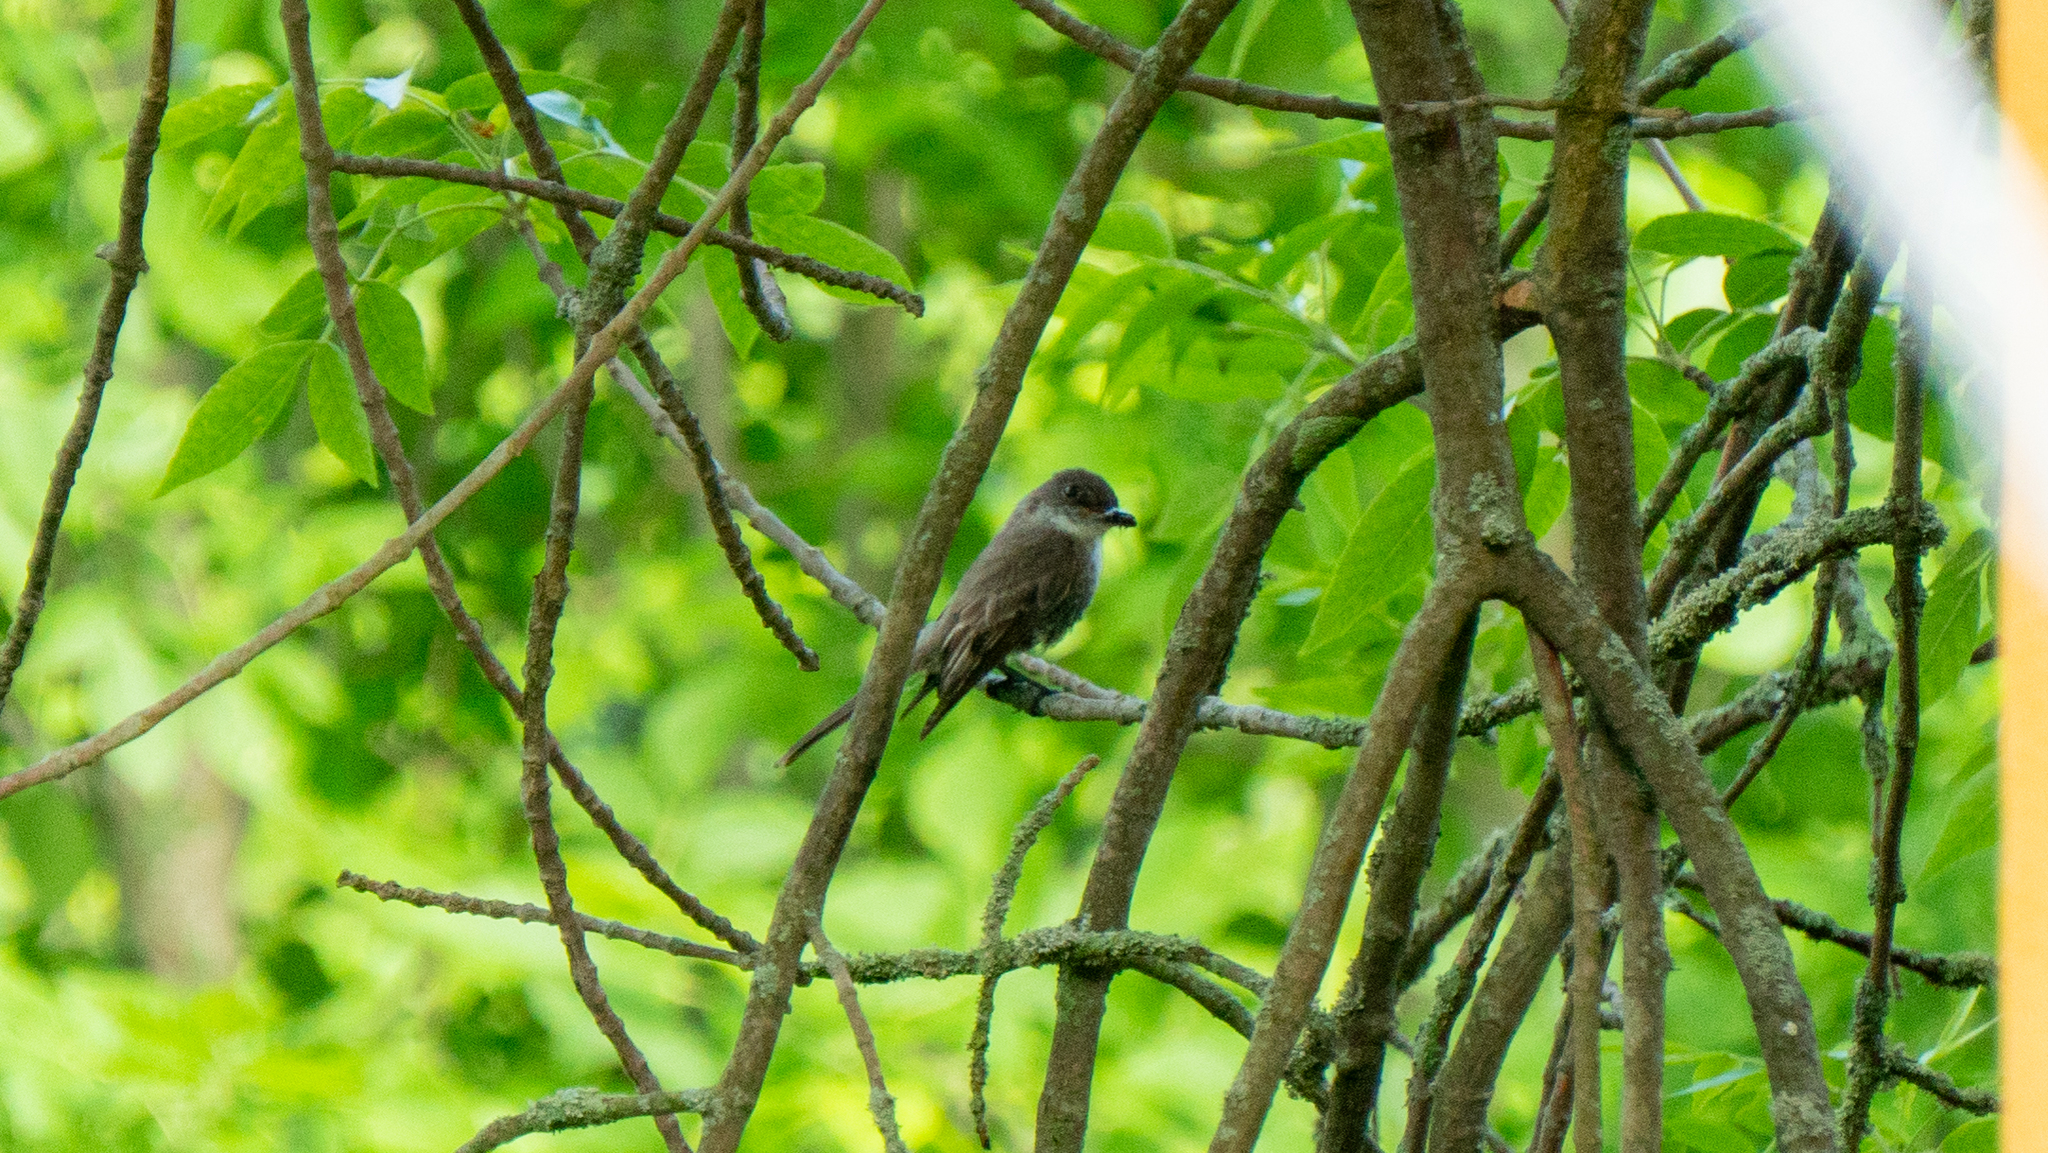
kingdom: Animalia
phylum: Chordata
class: Aves
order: Passeriformes
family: Tyrannidae
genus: Sayornis
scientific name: Sayornis phoebe
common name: Eastern phoebe
